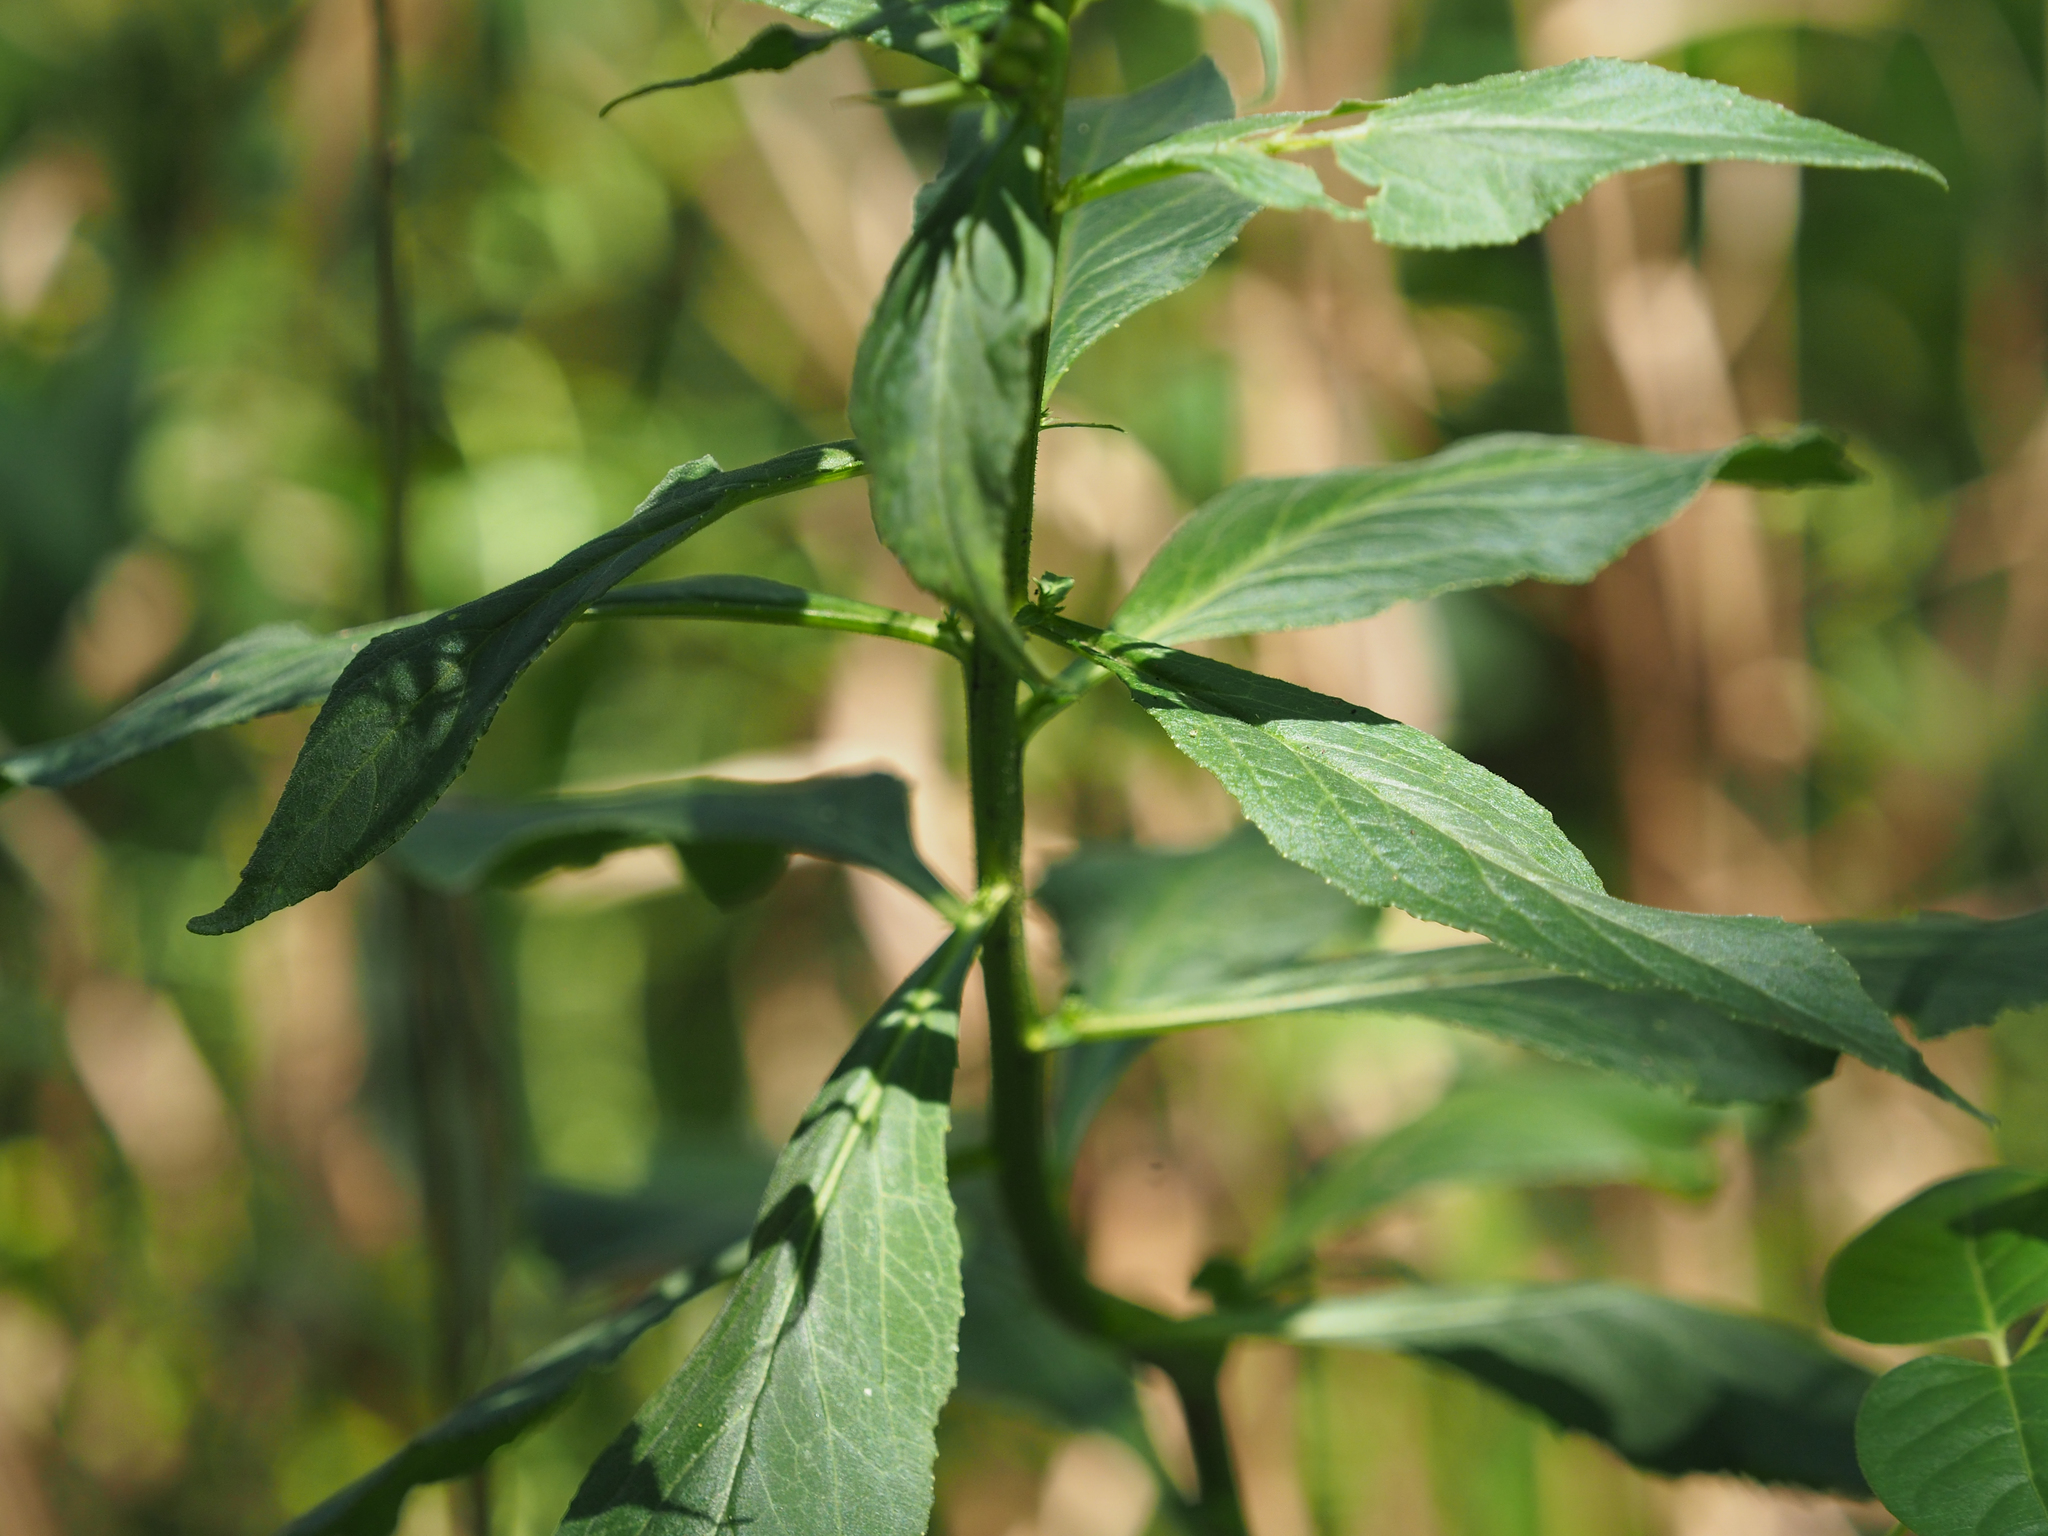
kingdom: Plantae
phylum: Tracheophyta
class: Magnoliopsida
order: Asterales
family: Campanulaceae
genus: Lobelia
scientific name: Lobelia cardinalis
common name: Cardinal flower
